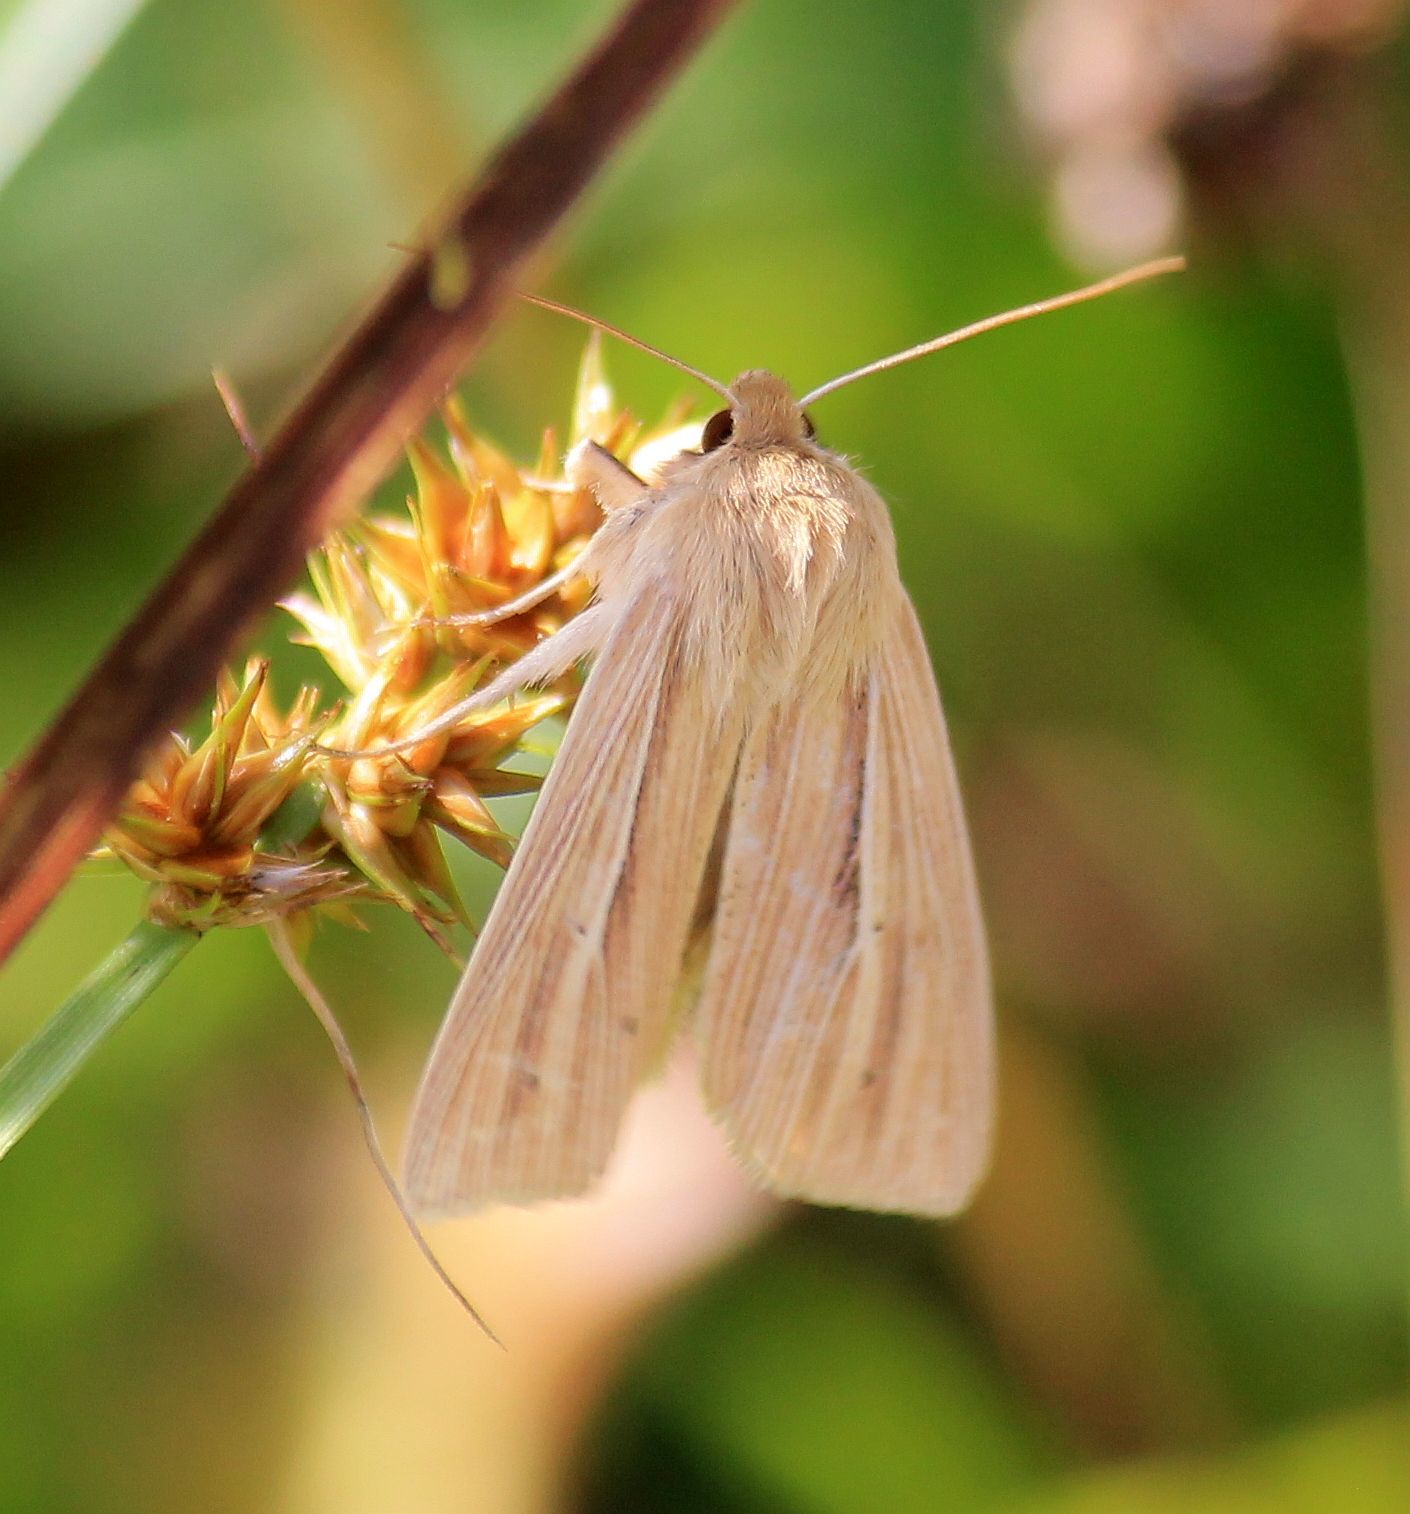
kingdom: Animalia
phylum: Arthropoda
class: Insecta
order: Lepidoptera
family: Noctuidae
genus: Mythimna
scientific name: Mythimna impura
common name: Smoky wainscot
